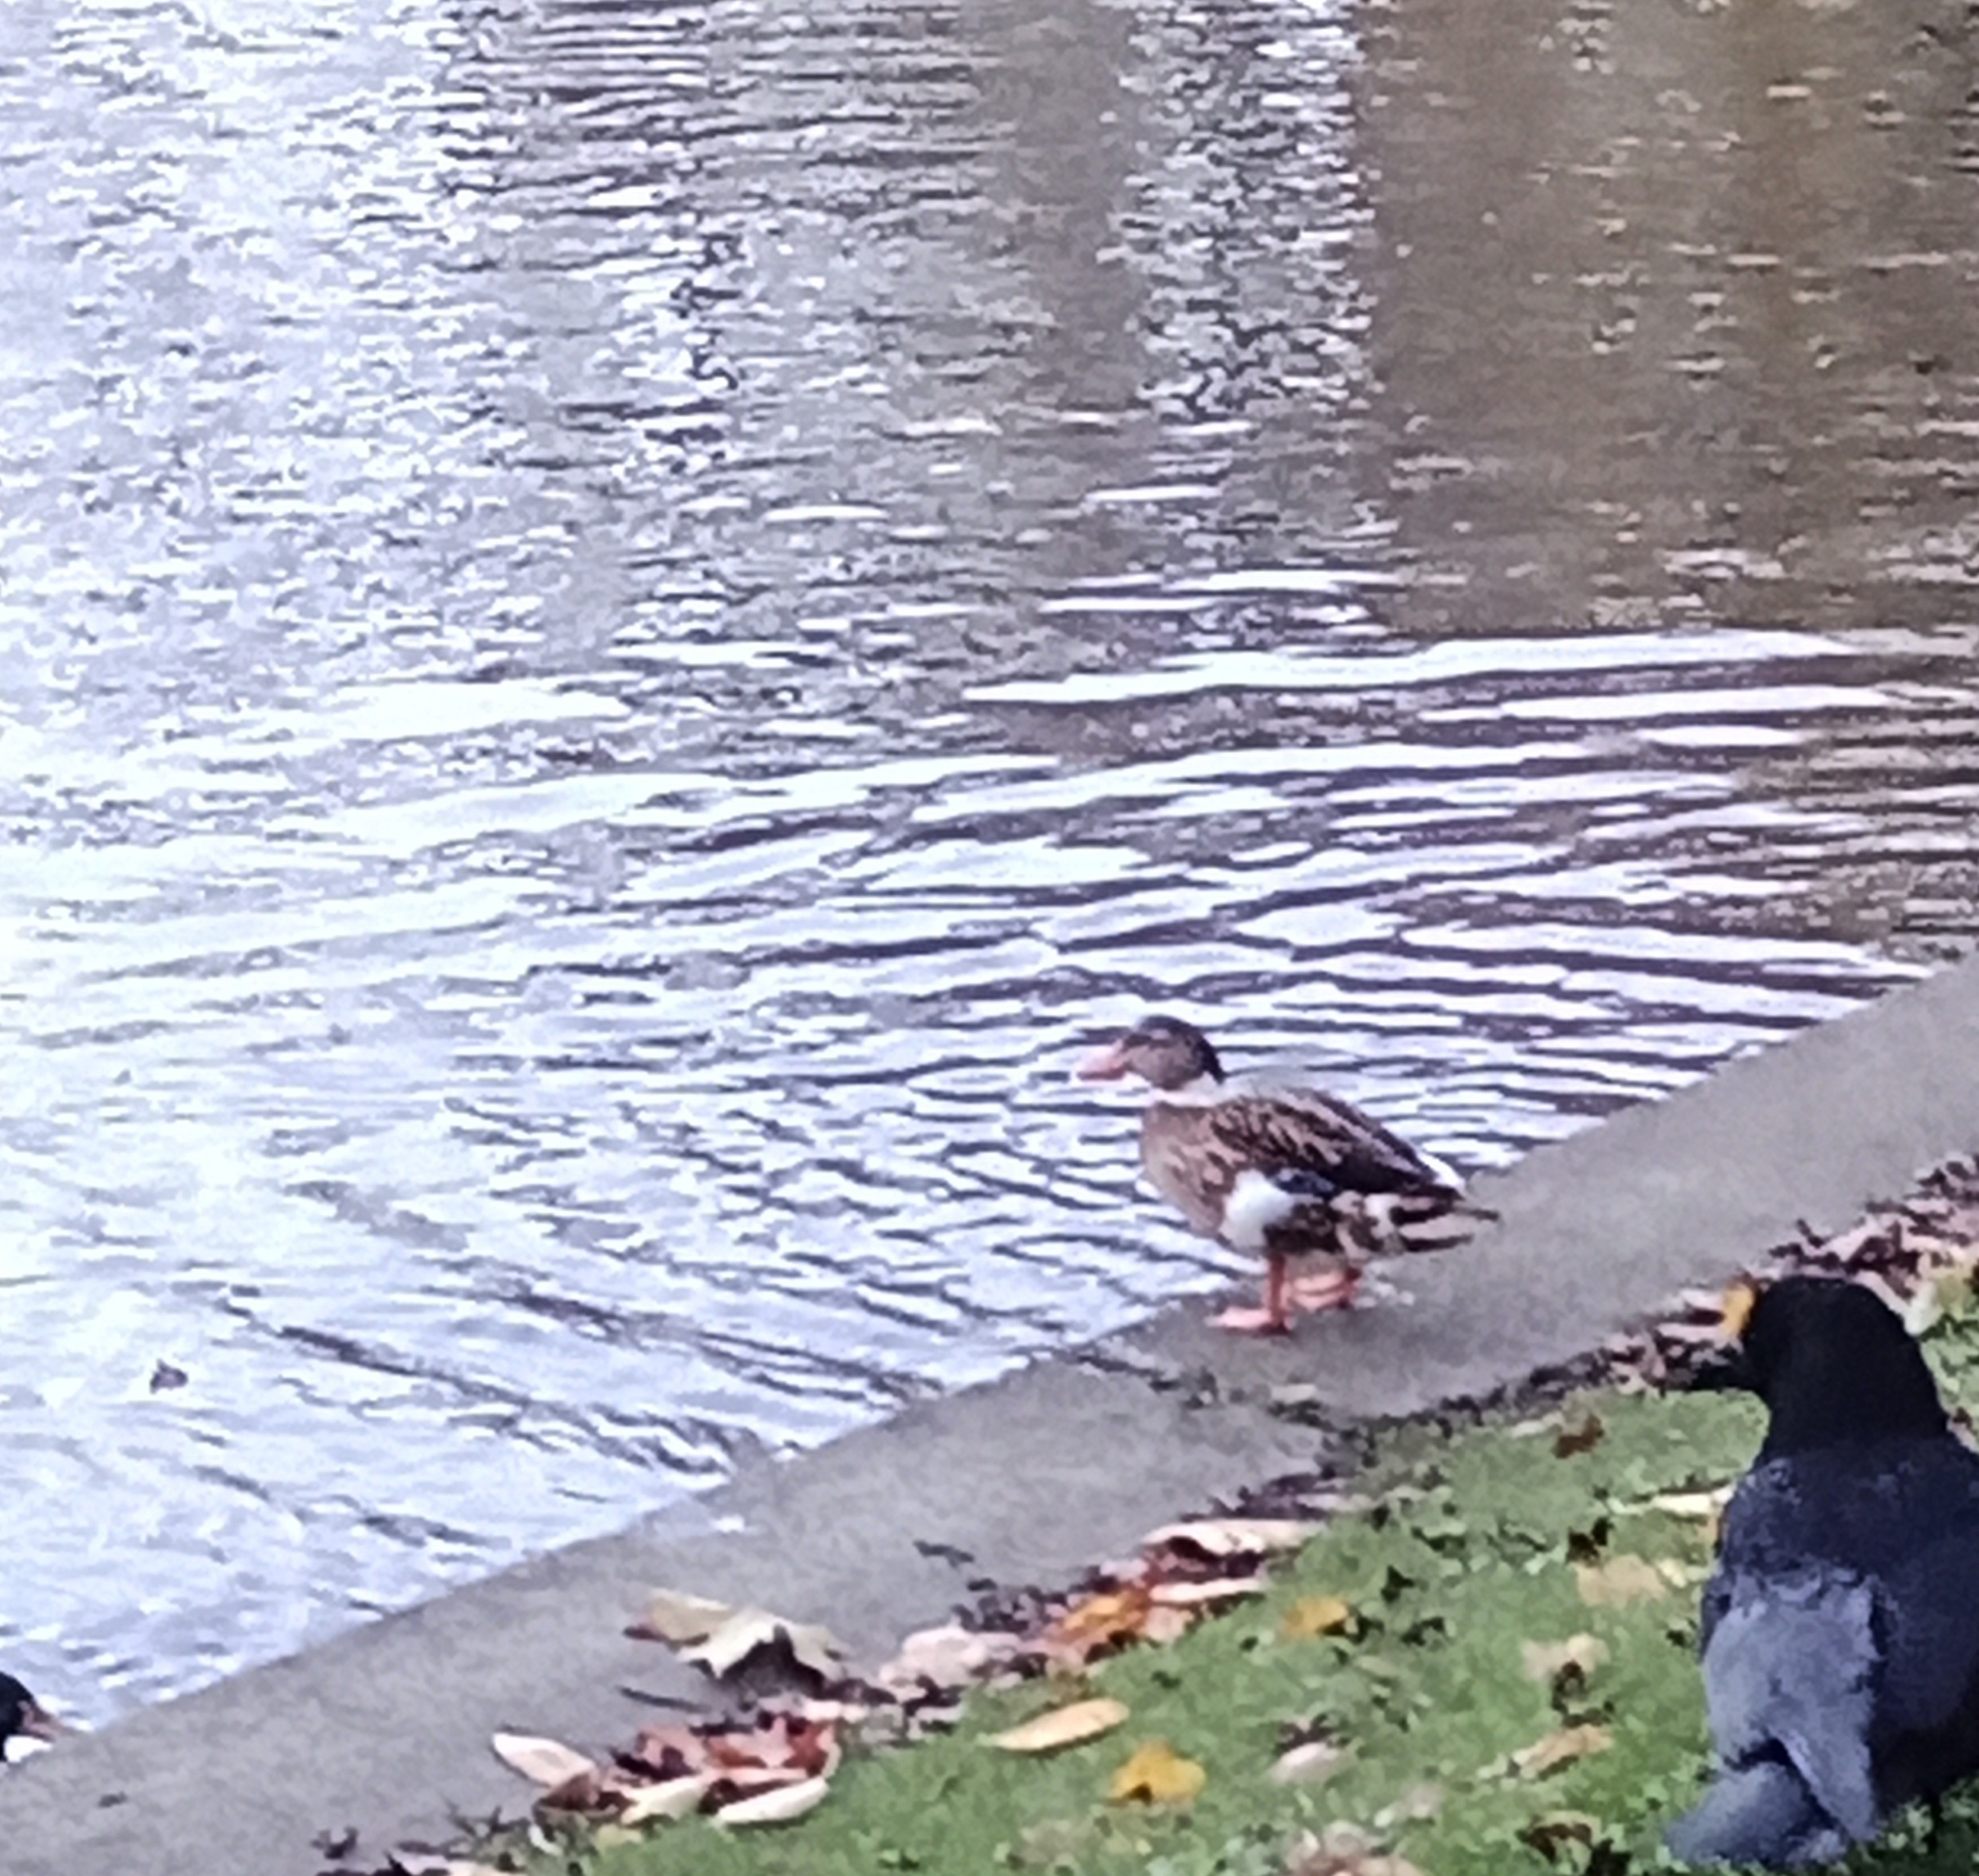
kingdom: Animalia
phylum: Chordata
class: Aves
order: Anseriformes
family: Anatidae
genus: Anas
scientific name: Anas platyrhynchos
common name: Mallard
